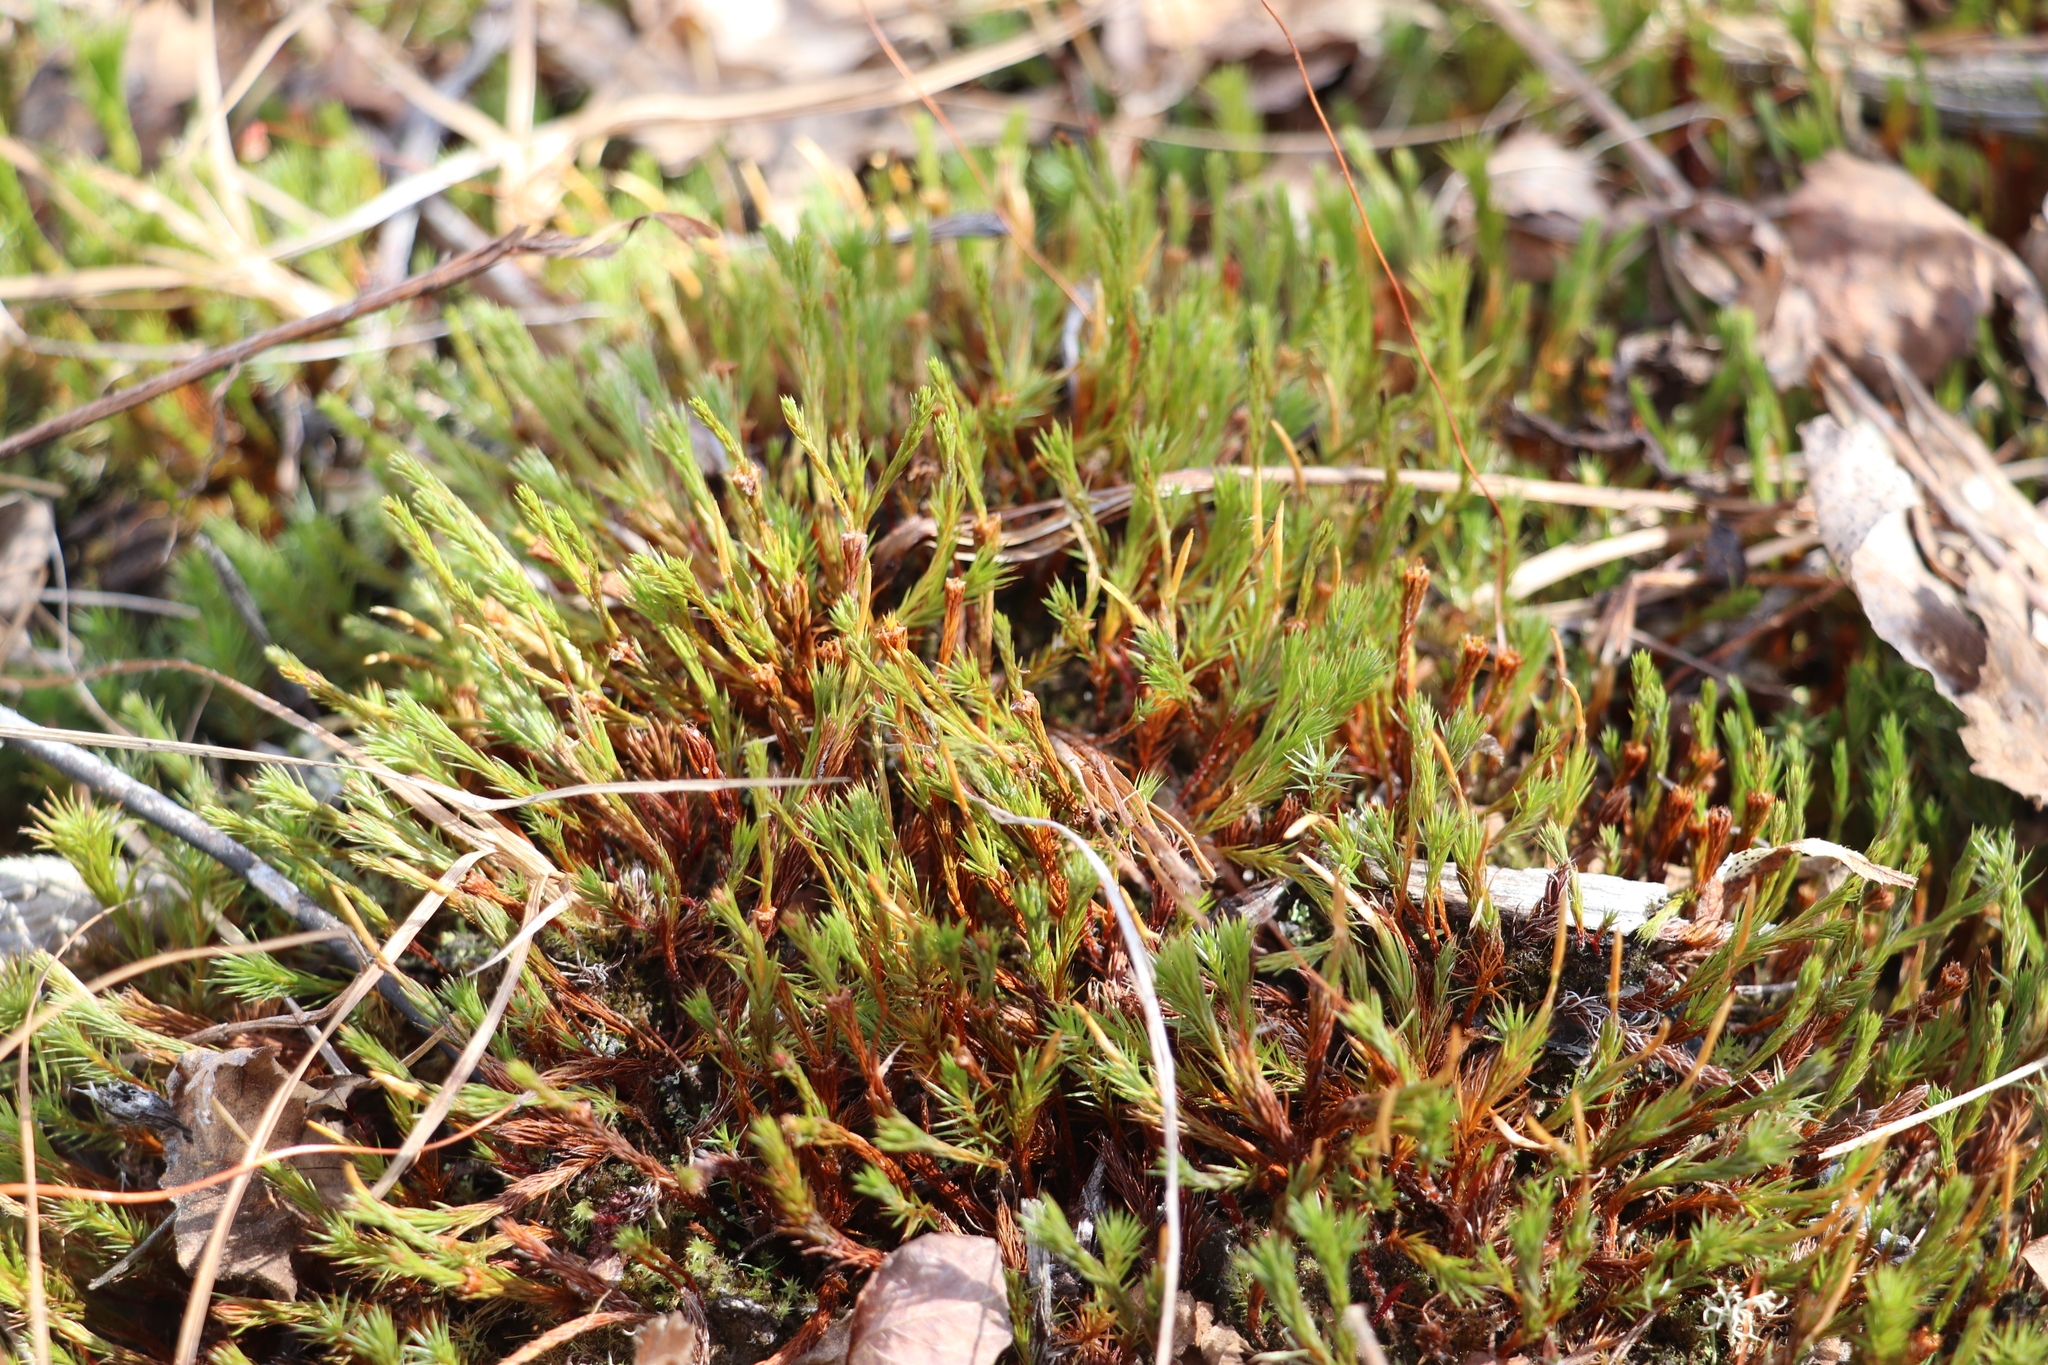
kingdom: Plantae
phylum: Bryophyta
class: Polytrichopsida
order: Polytrichales
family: Polytrichaceae
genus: Polytrichum
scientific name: Polytrichum juniperinum
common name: Juniper haircap moss
